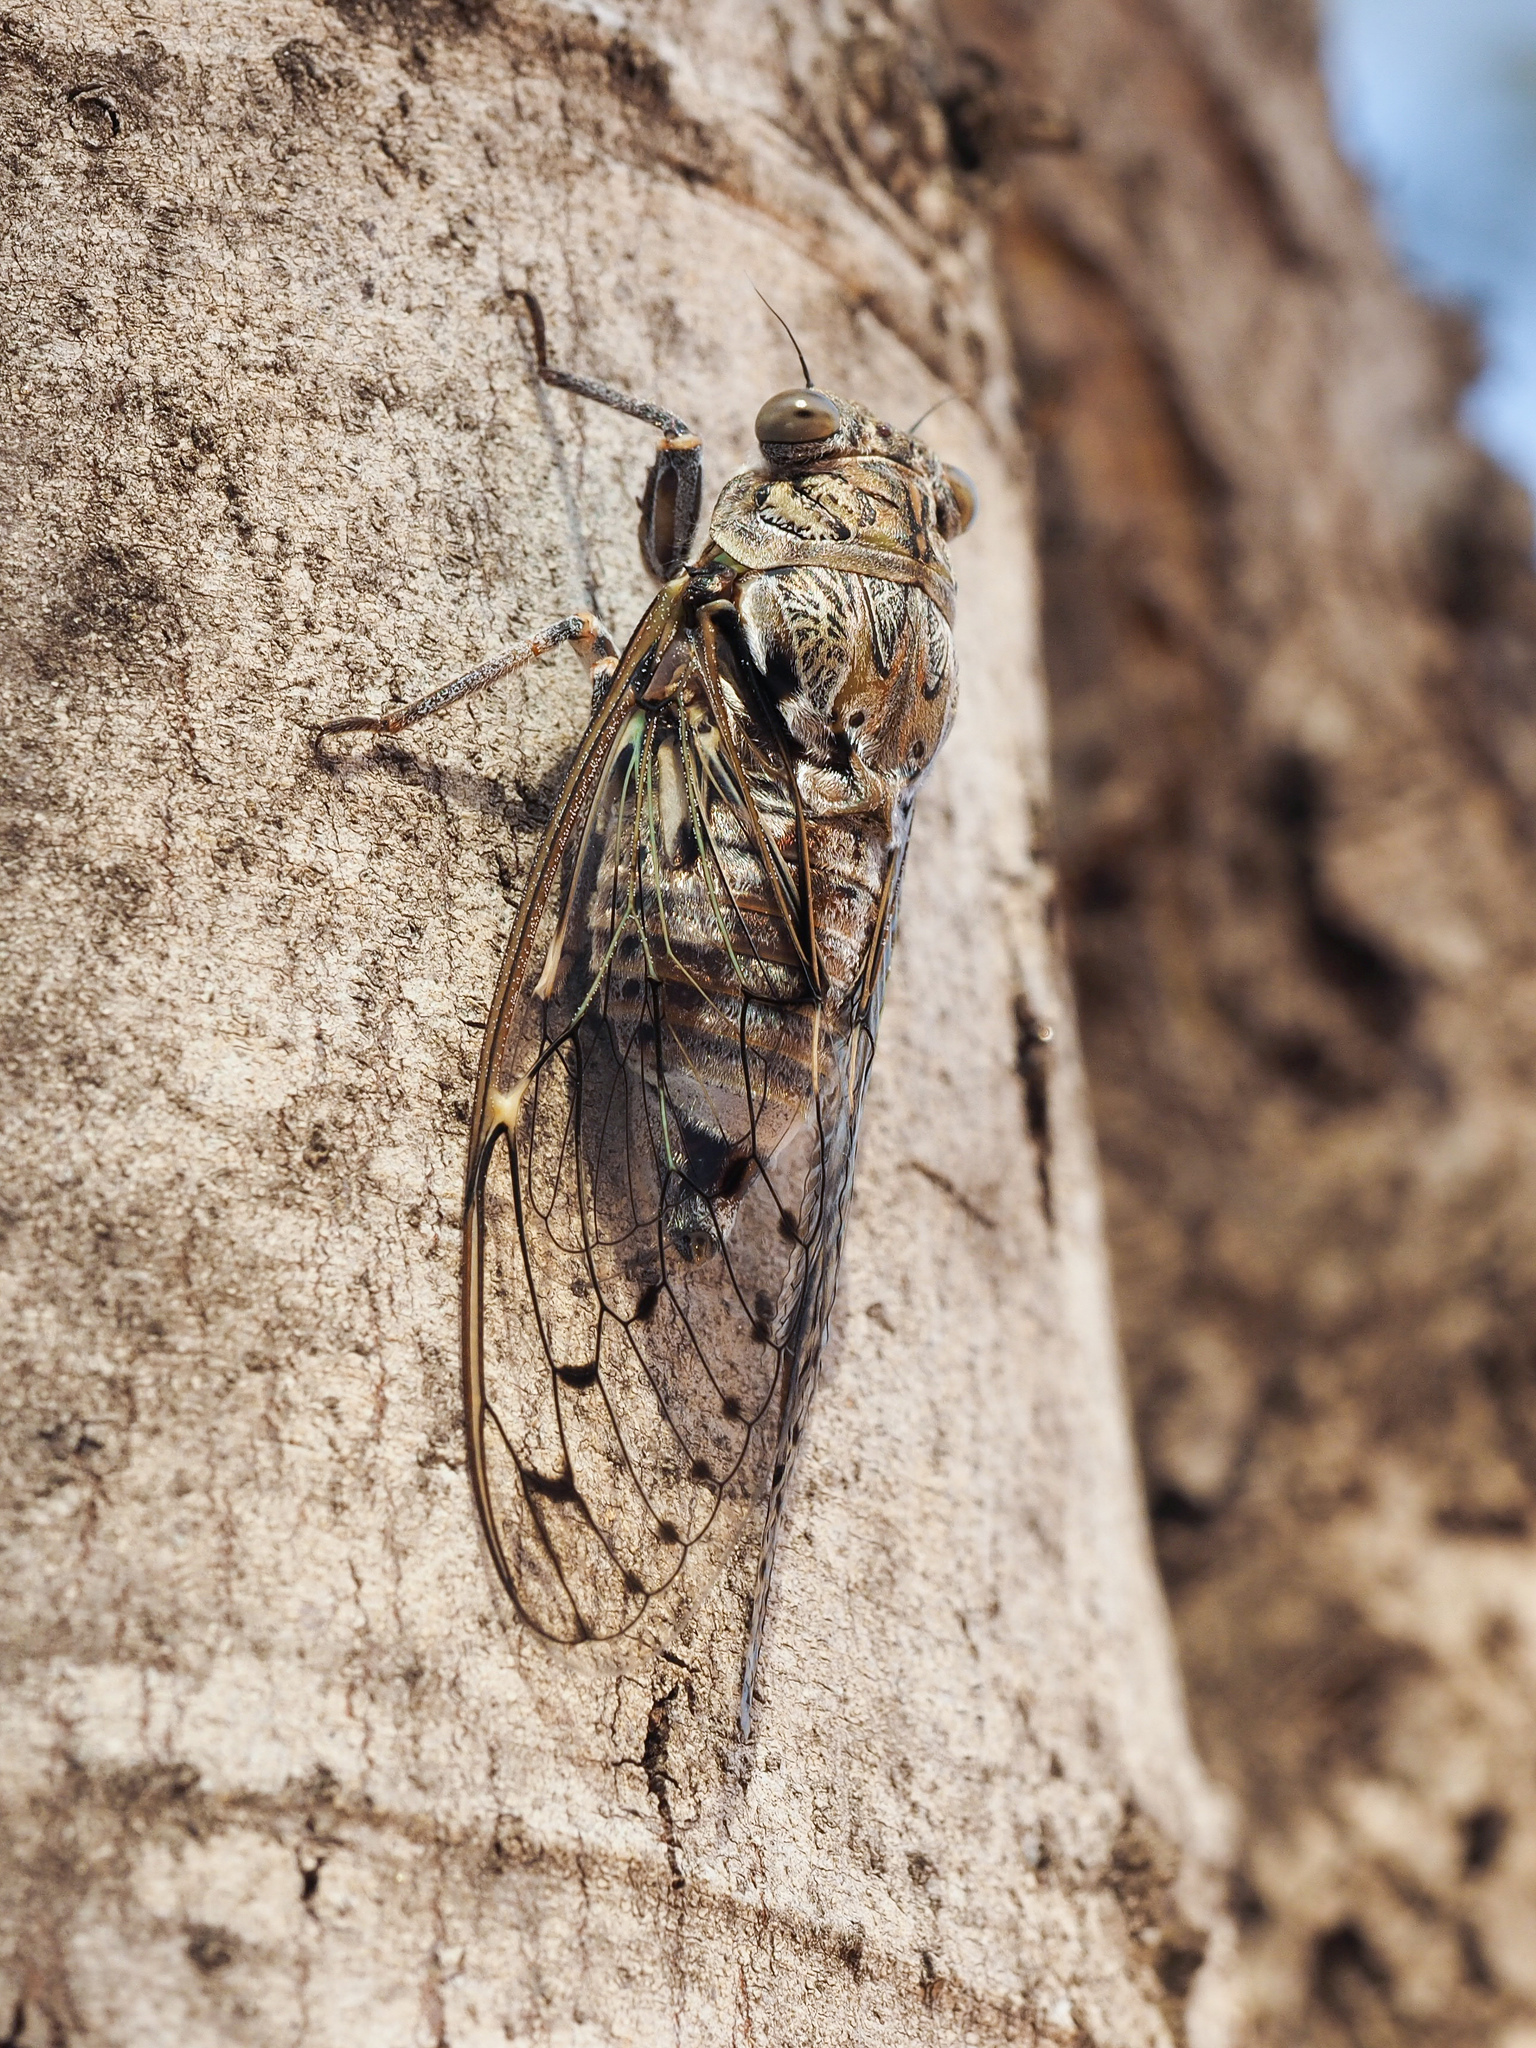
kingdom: Animalia
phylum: Arthropoda
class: Insecta
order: Hemiptera
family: Cicadidae
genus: Cicada
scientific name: Cicada orni
